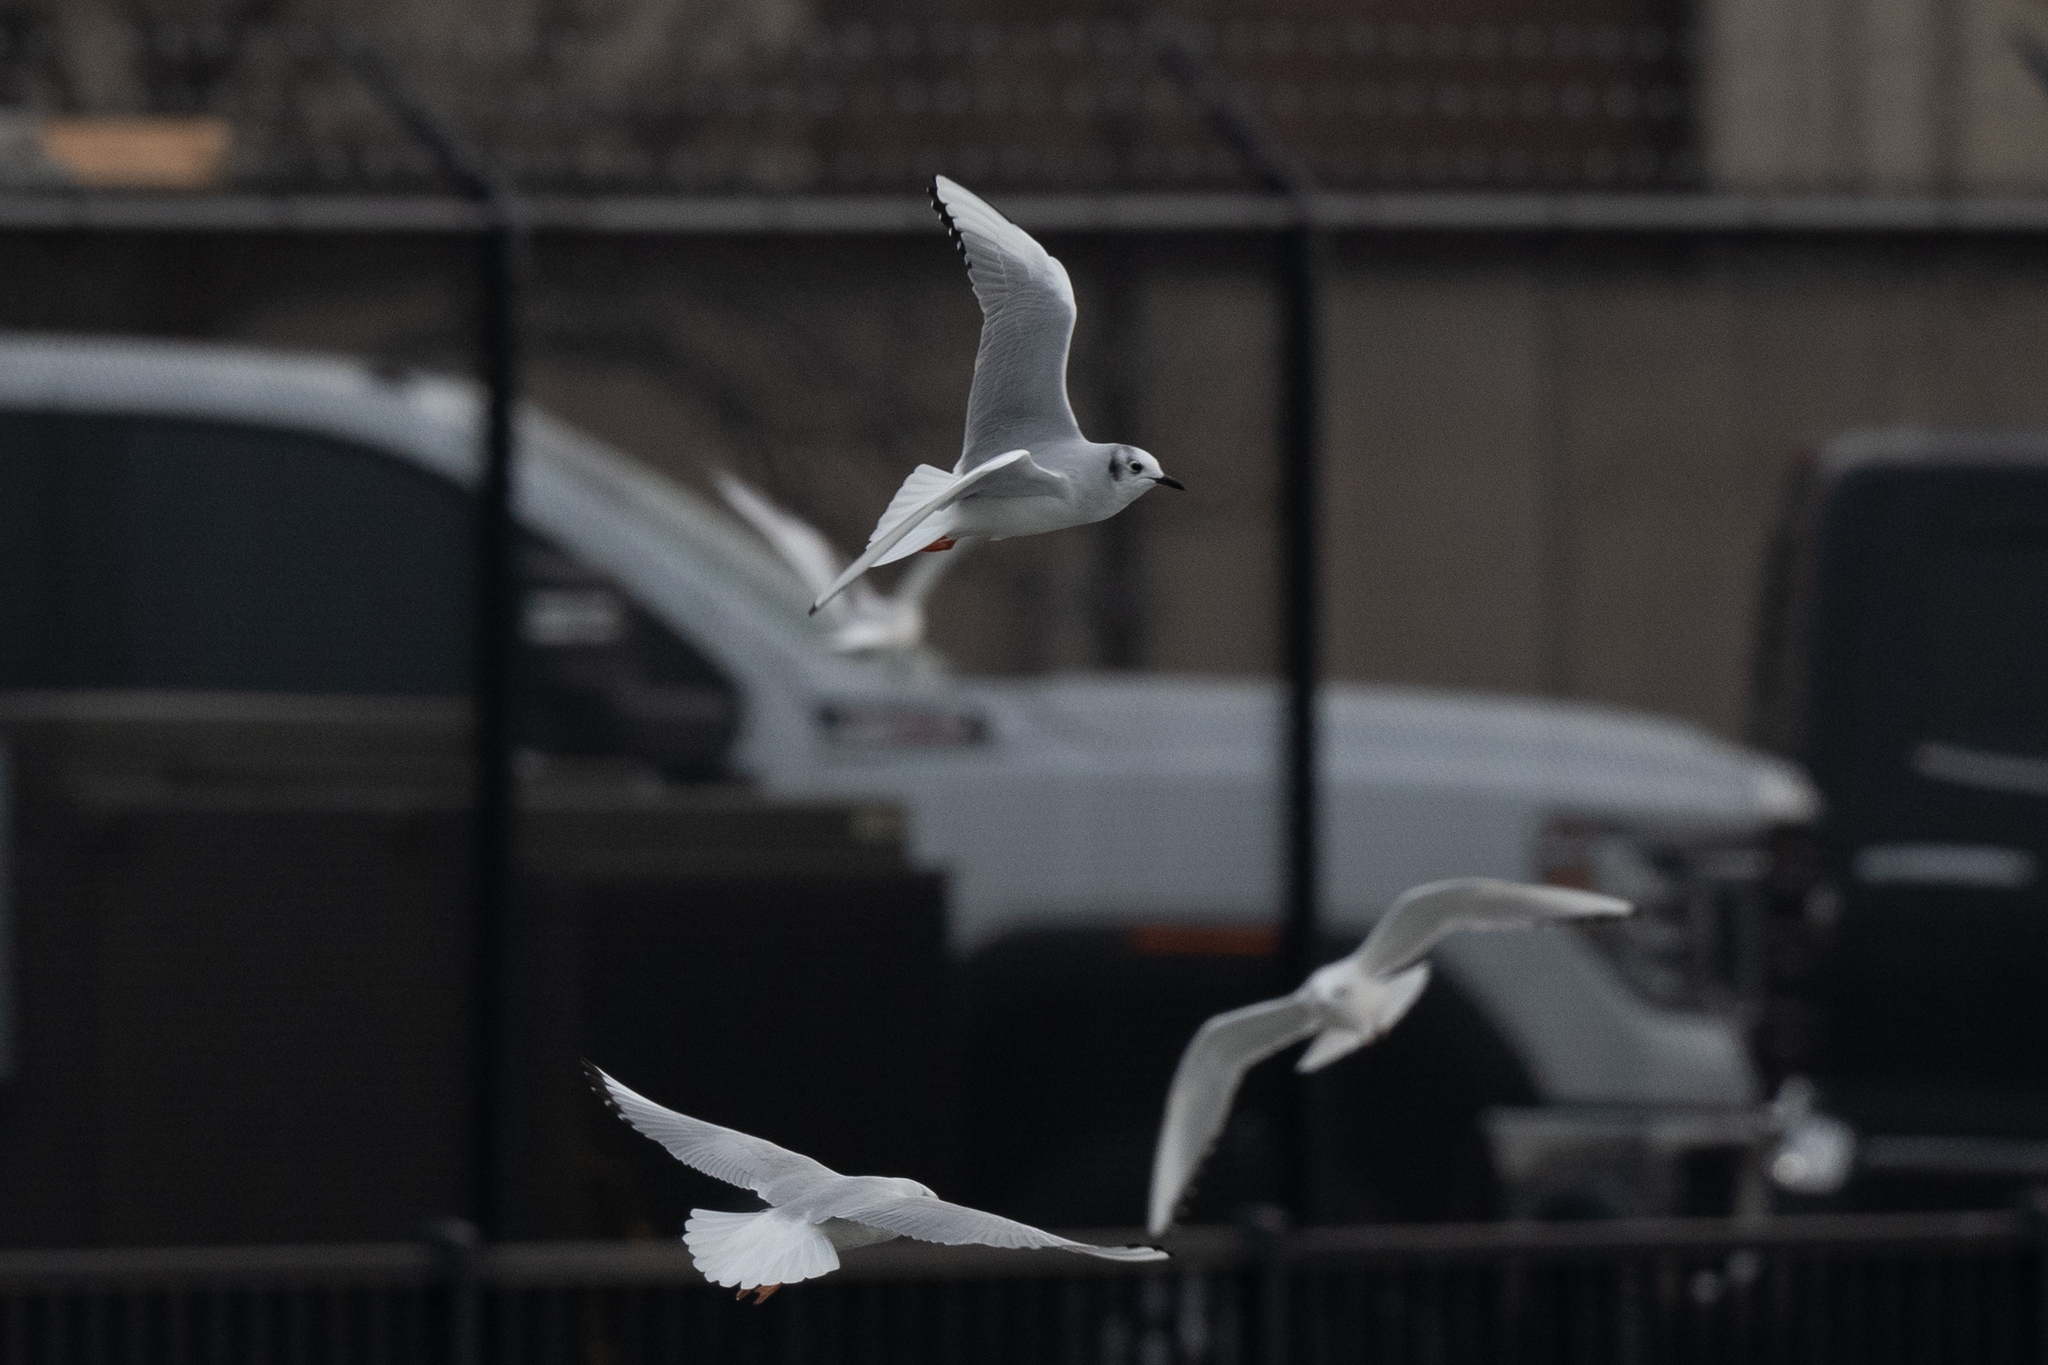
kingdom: Animalia
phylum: Chordata
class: Aves
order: Charadriiformes
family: Laridae
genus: Chroicocephalus
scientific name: Chroicocephalus philadelphia
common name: Bonaparte's gull
